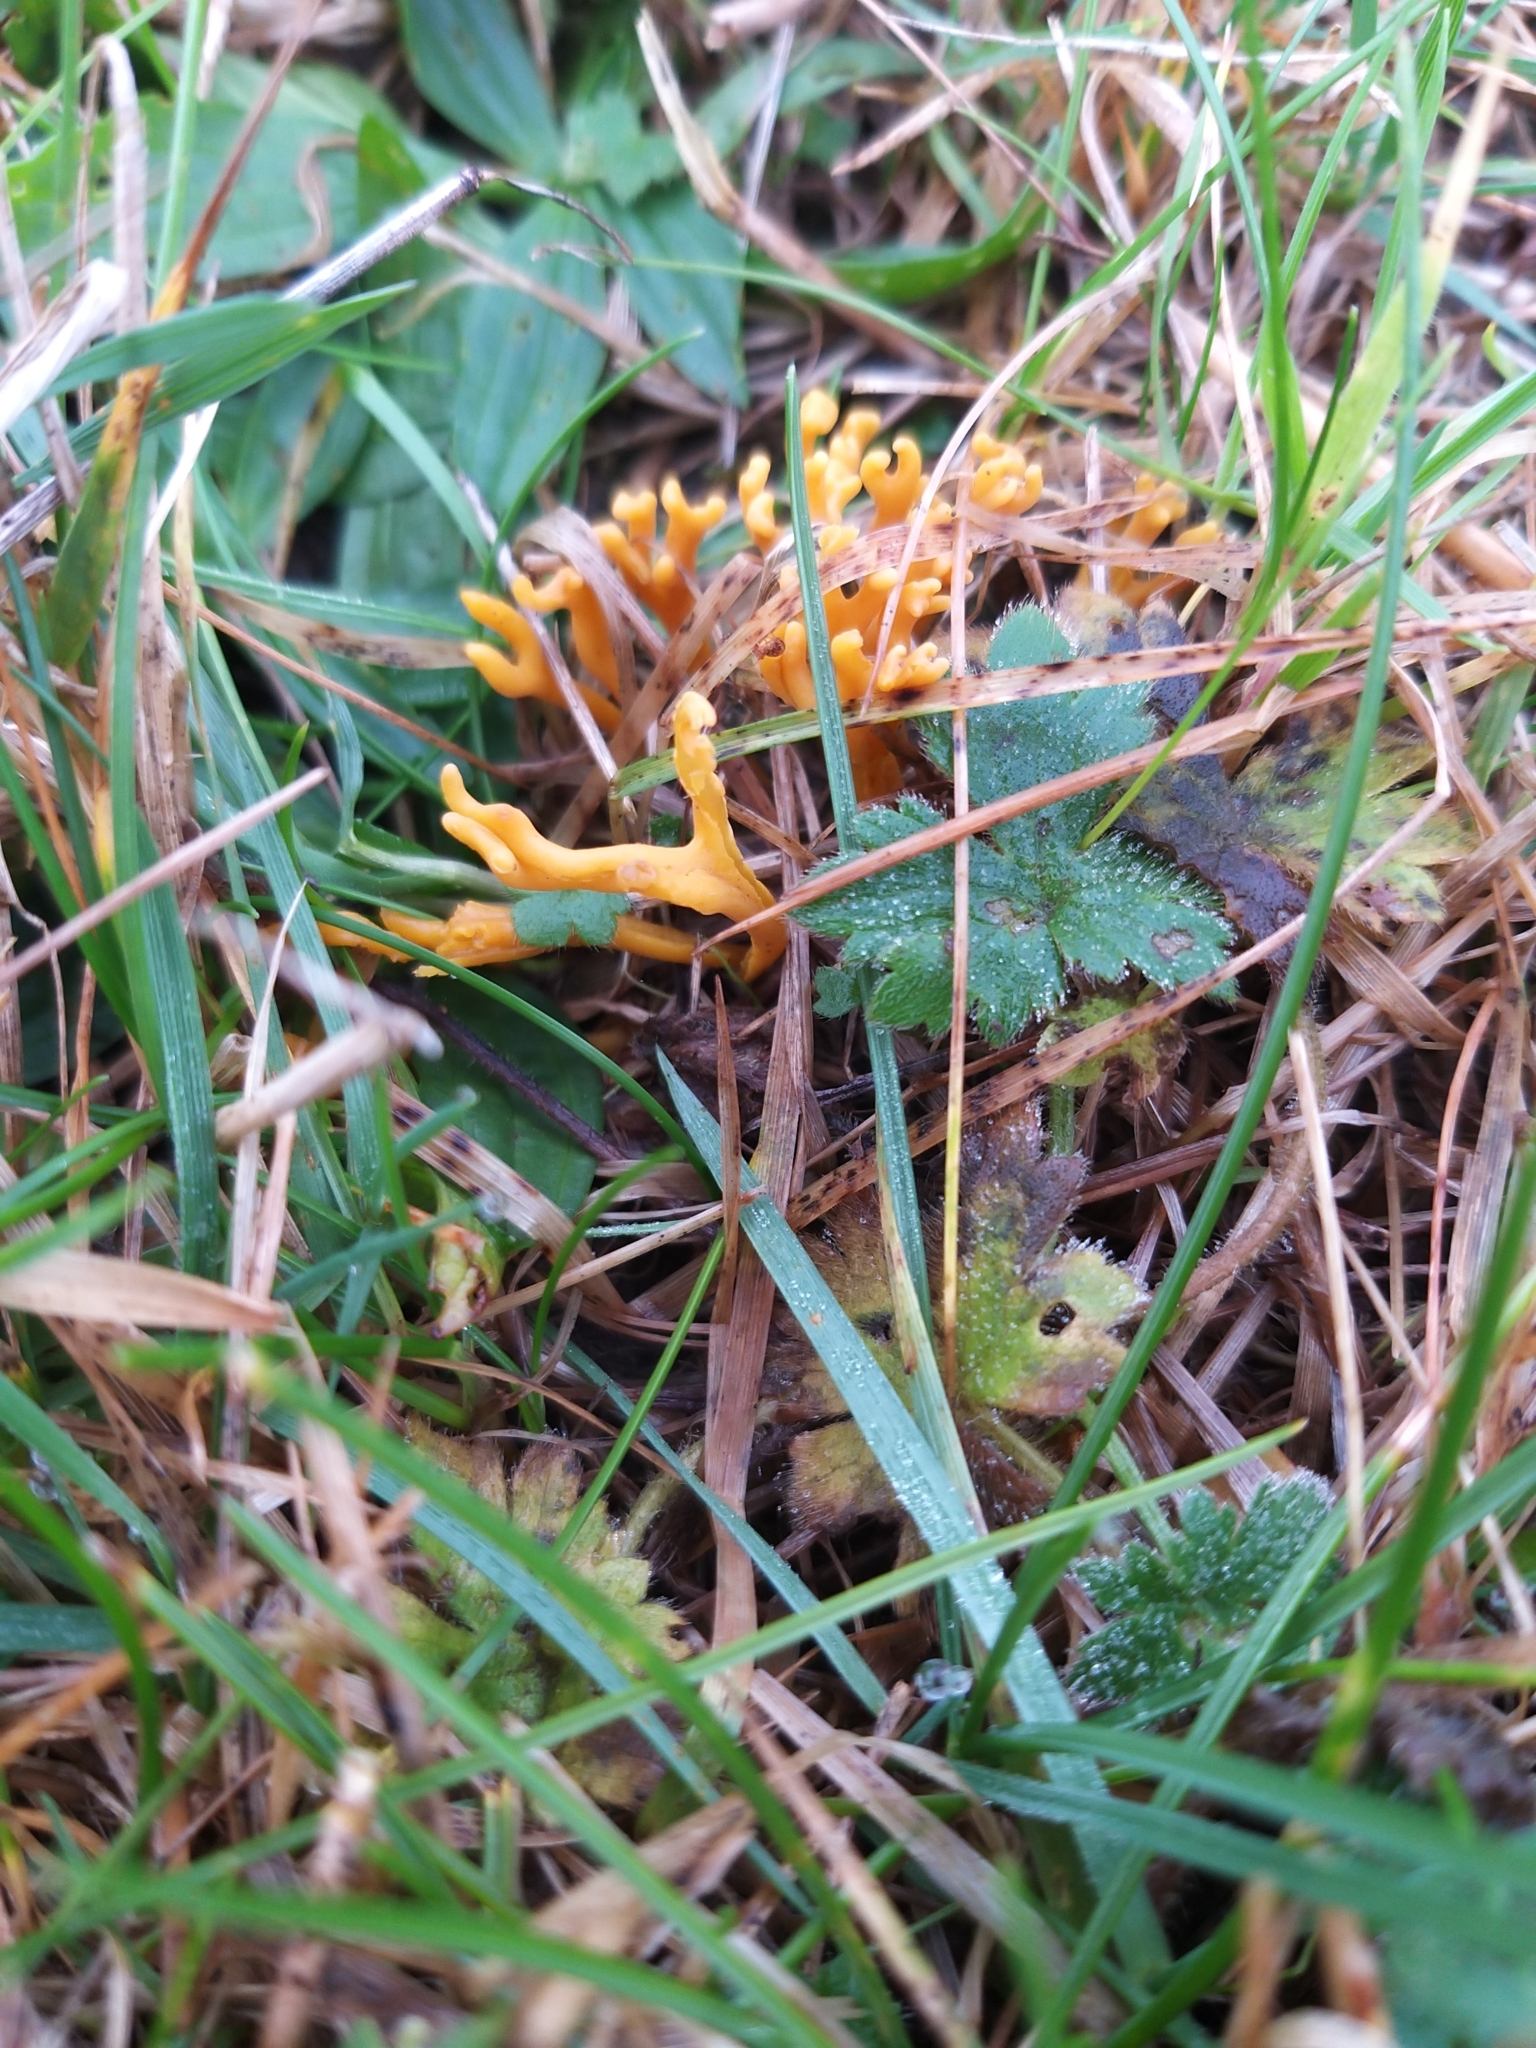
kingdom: Fungi
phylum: Basidiomycota
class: Agaricomycetes
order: Agaricales
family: Clavariaceae
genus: Clavulinopsis
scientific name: Clavulinopsis corniculata
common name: Meadow coral
